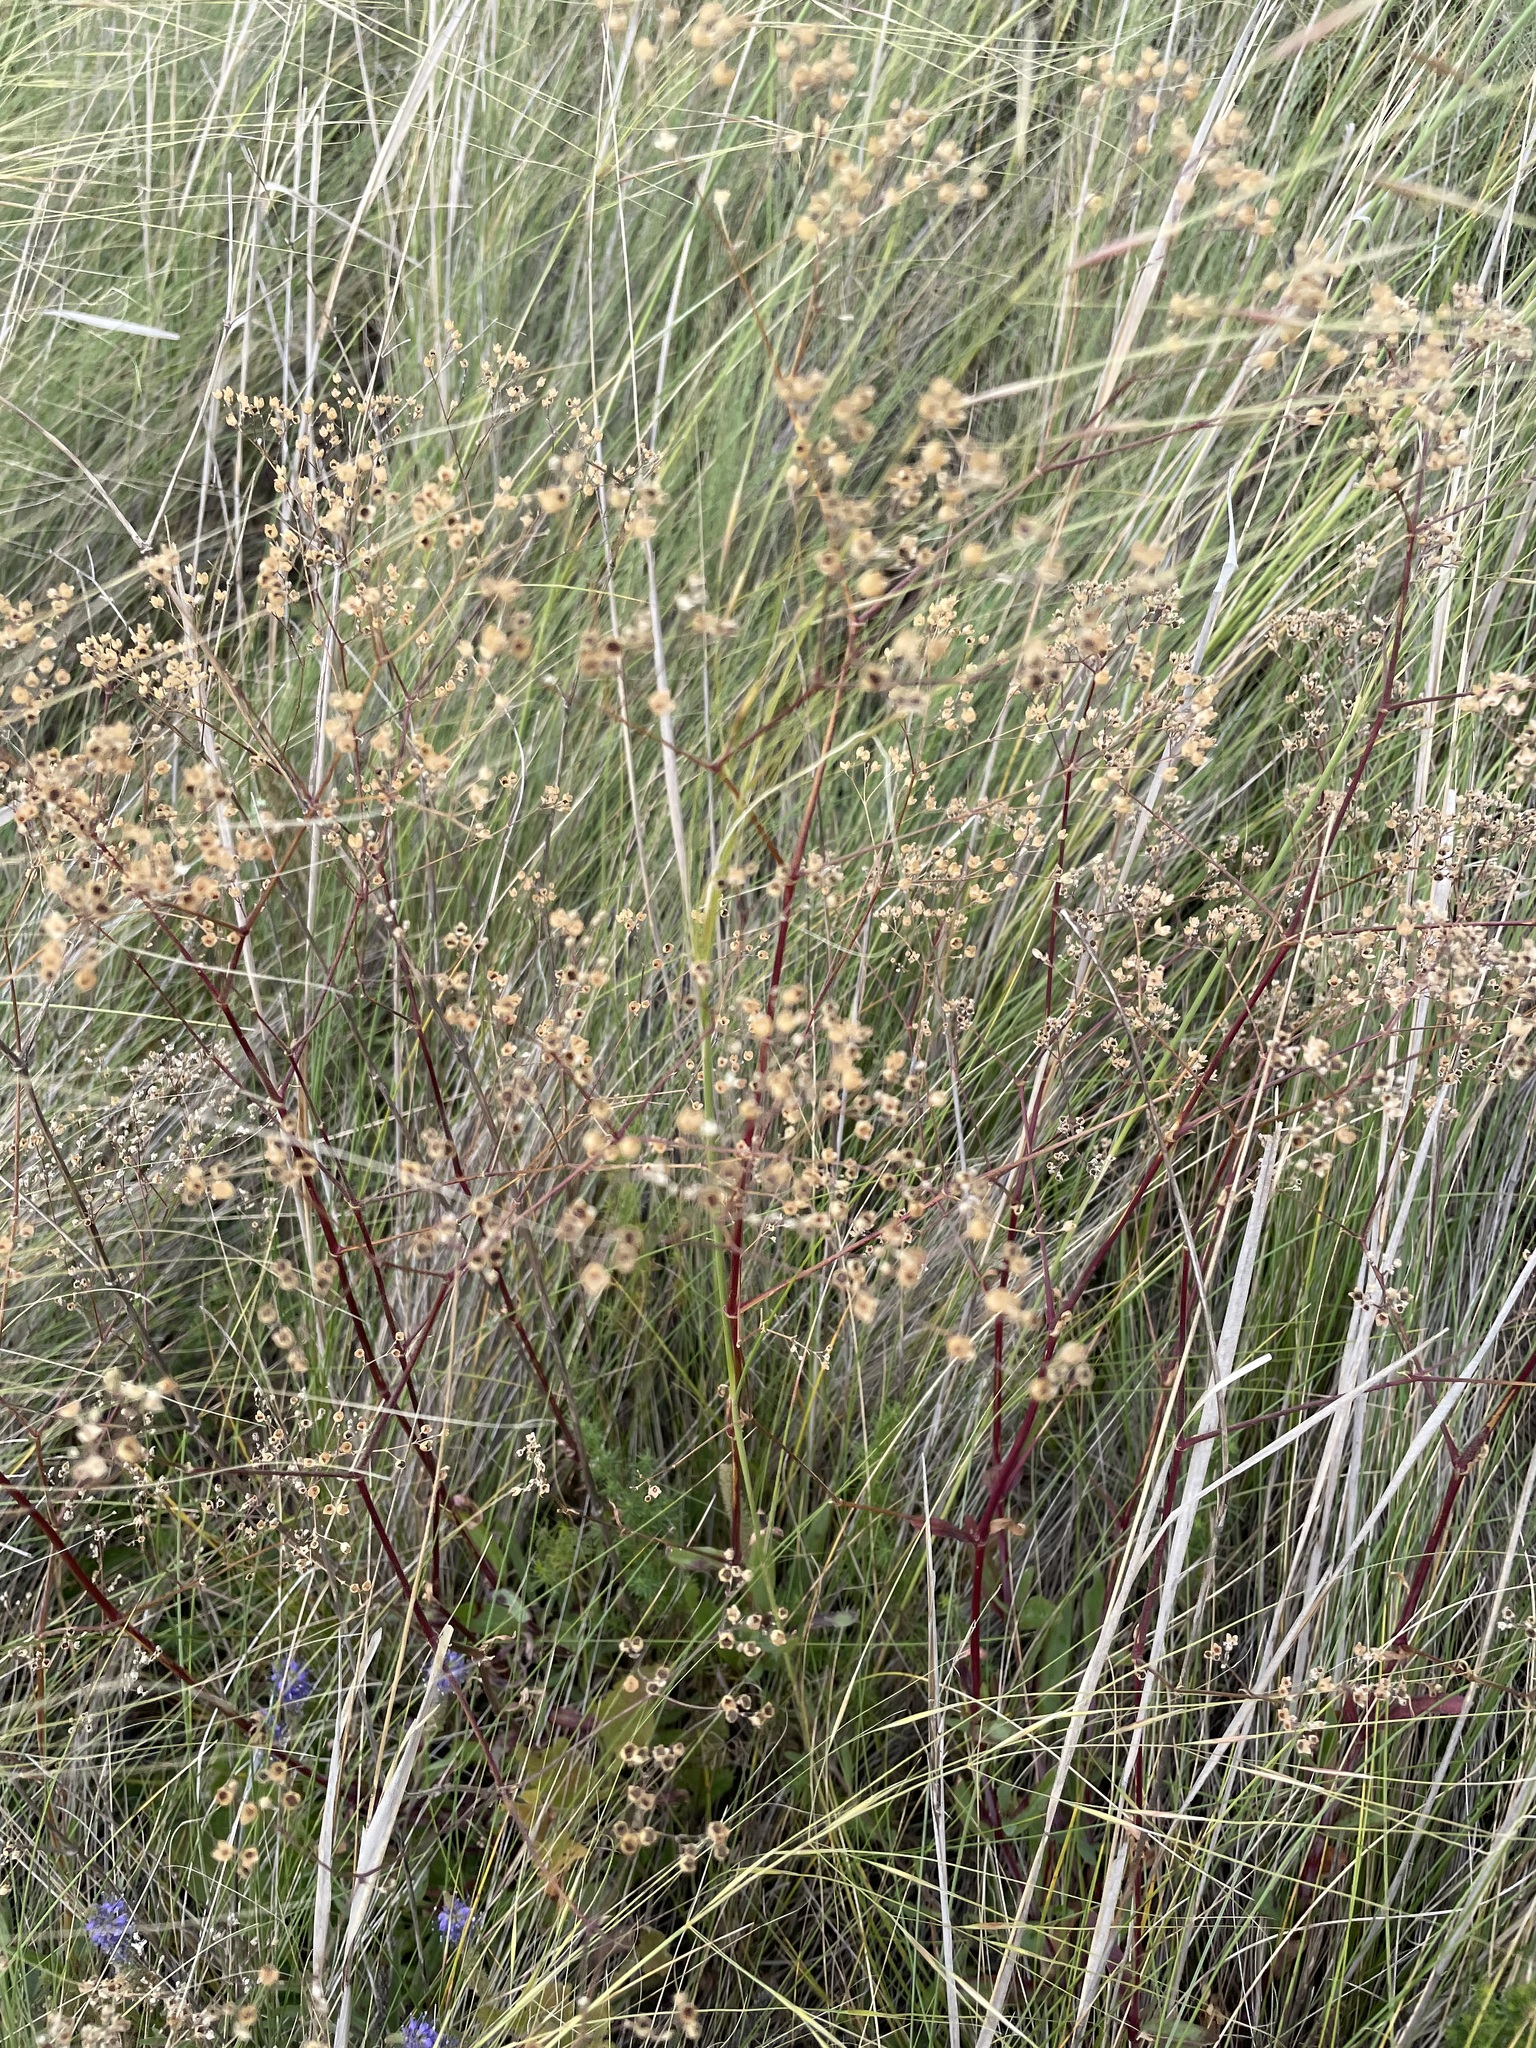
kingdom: Plantae
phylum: Tracheophyta
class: Magnoliopsida
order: Caryophyllales
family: Caryophyllaceae
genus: Gypsophila
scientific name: Gypsophila altissima
